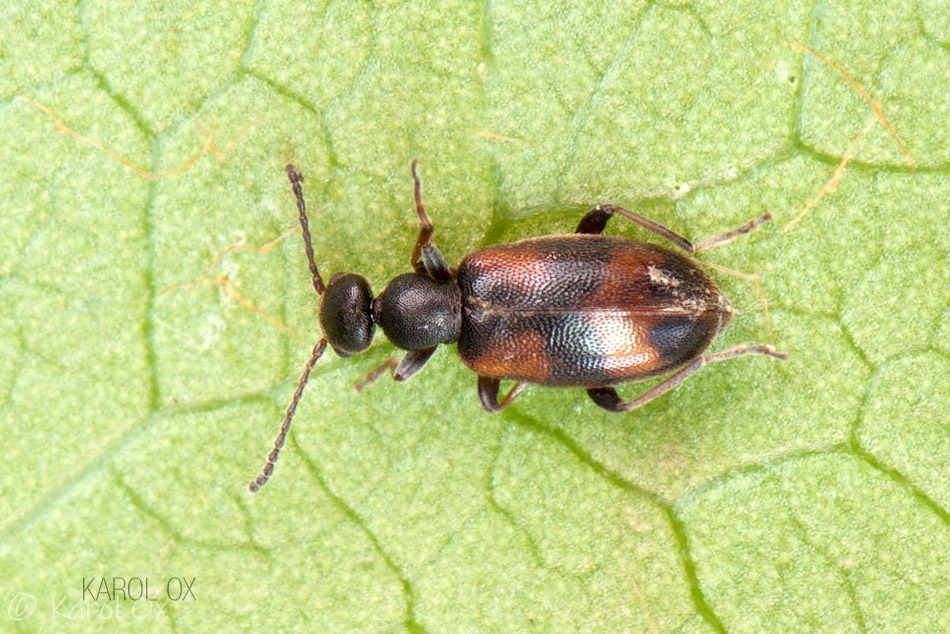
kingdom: Animalia
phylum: Arthropoda
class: Insecta
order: Coleoptera
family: Anthicidae
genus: Anthicus
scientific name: Anthicus antherinus
